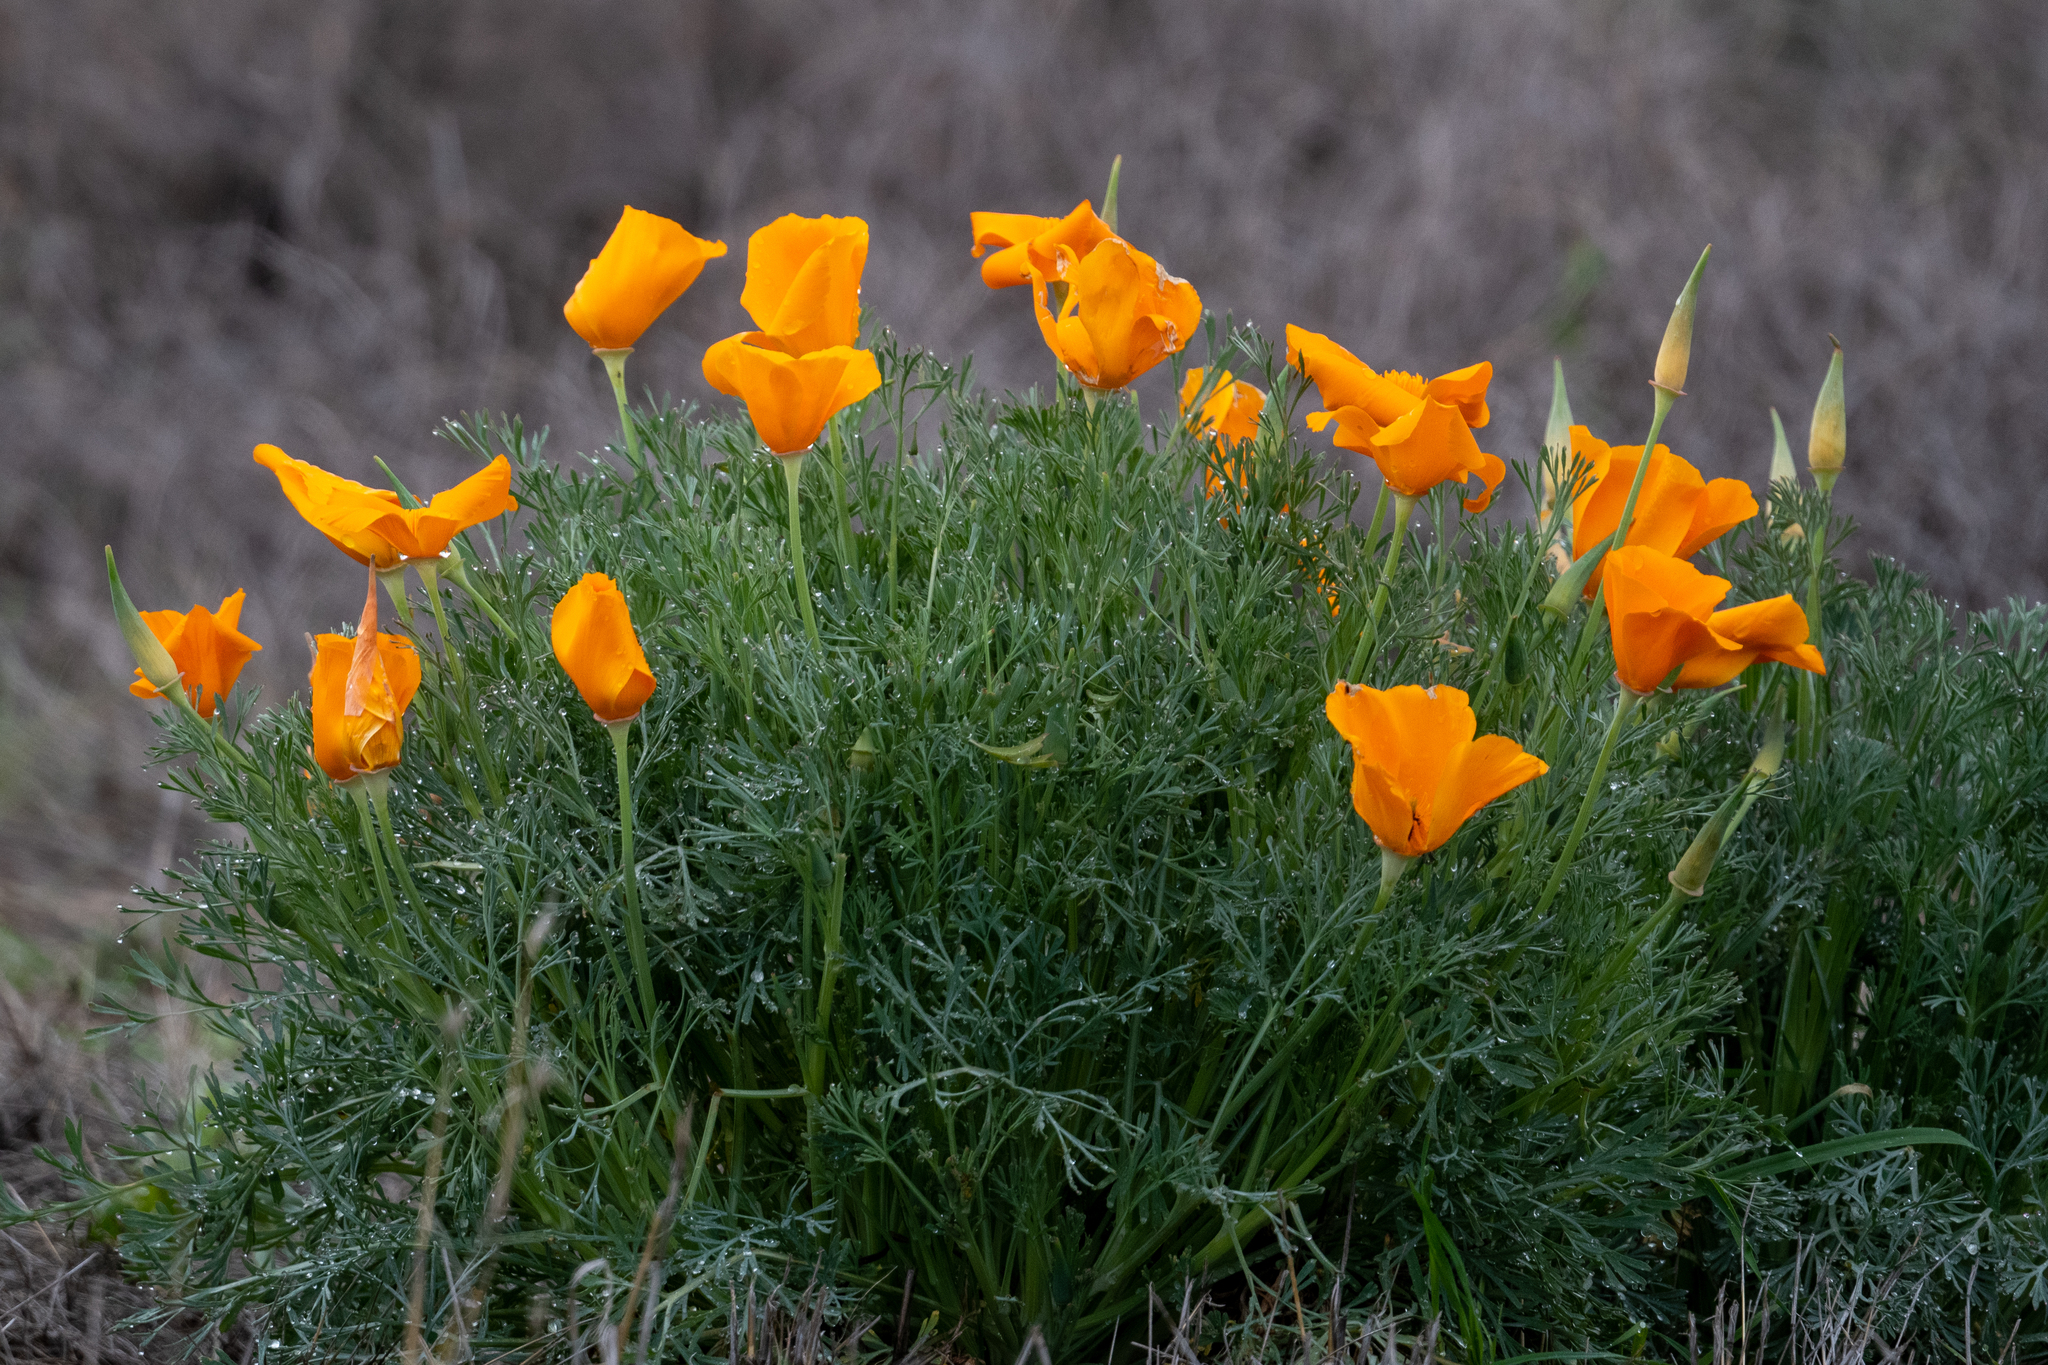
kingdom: Plantae
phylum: Tracheophyta
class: Magnoliopsida
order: Ranunculales
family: Papaveraceae
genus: Eschscholzia
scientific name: Eschscholzia californica
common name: California poppy
